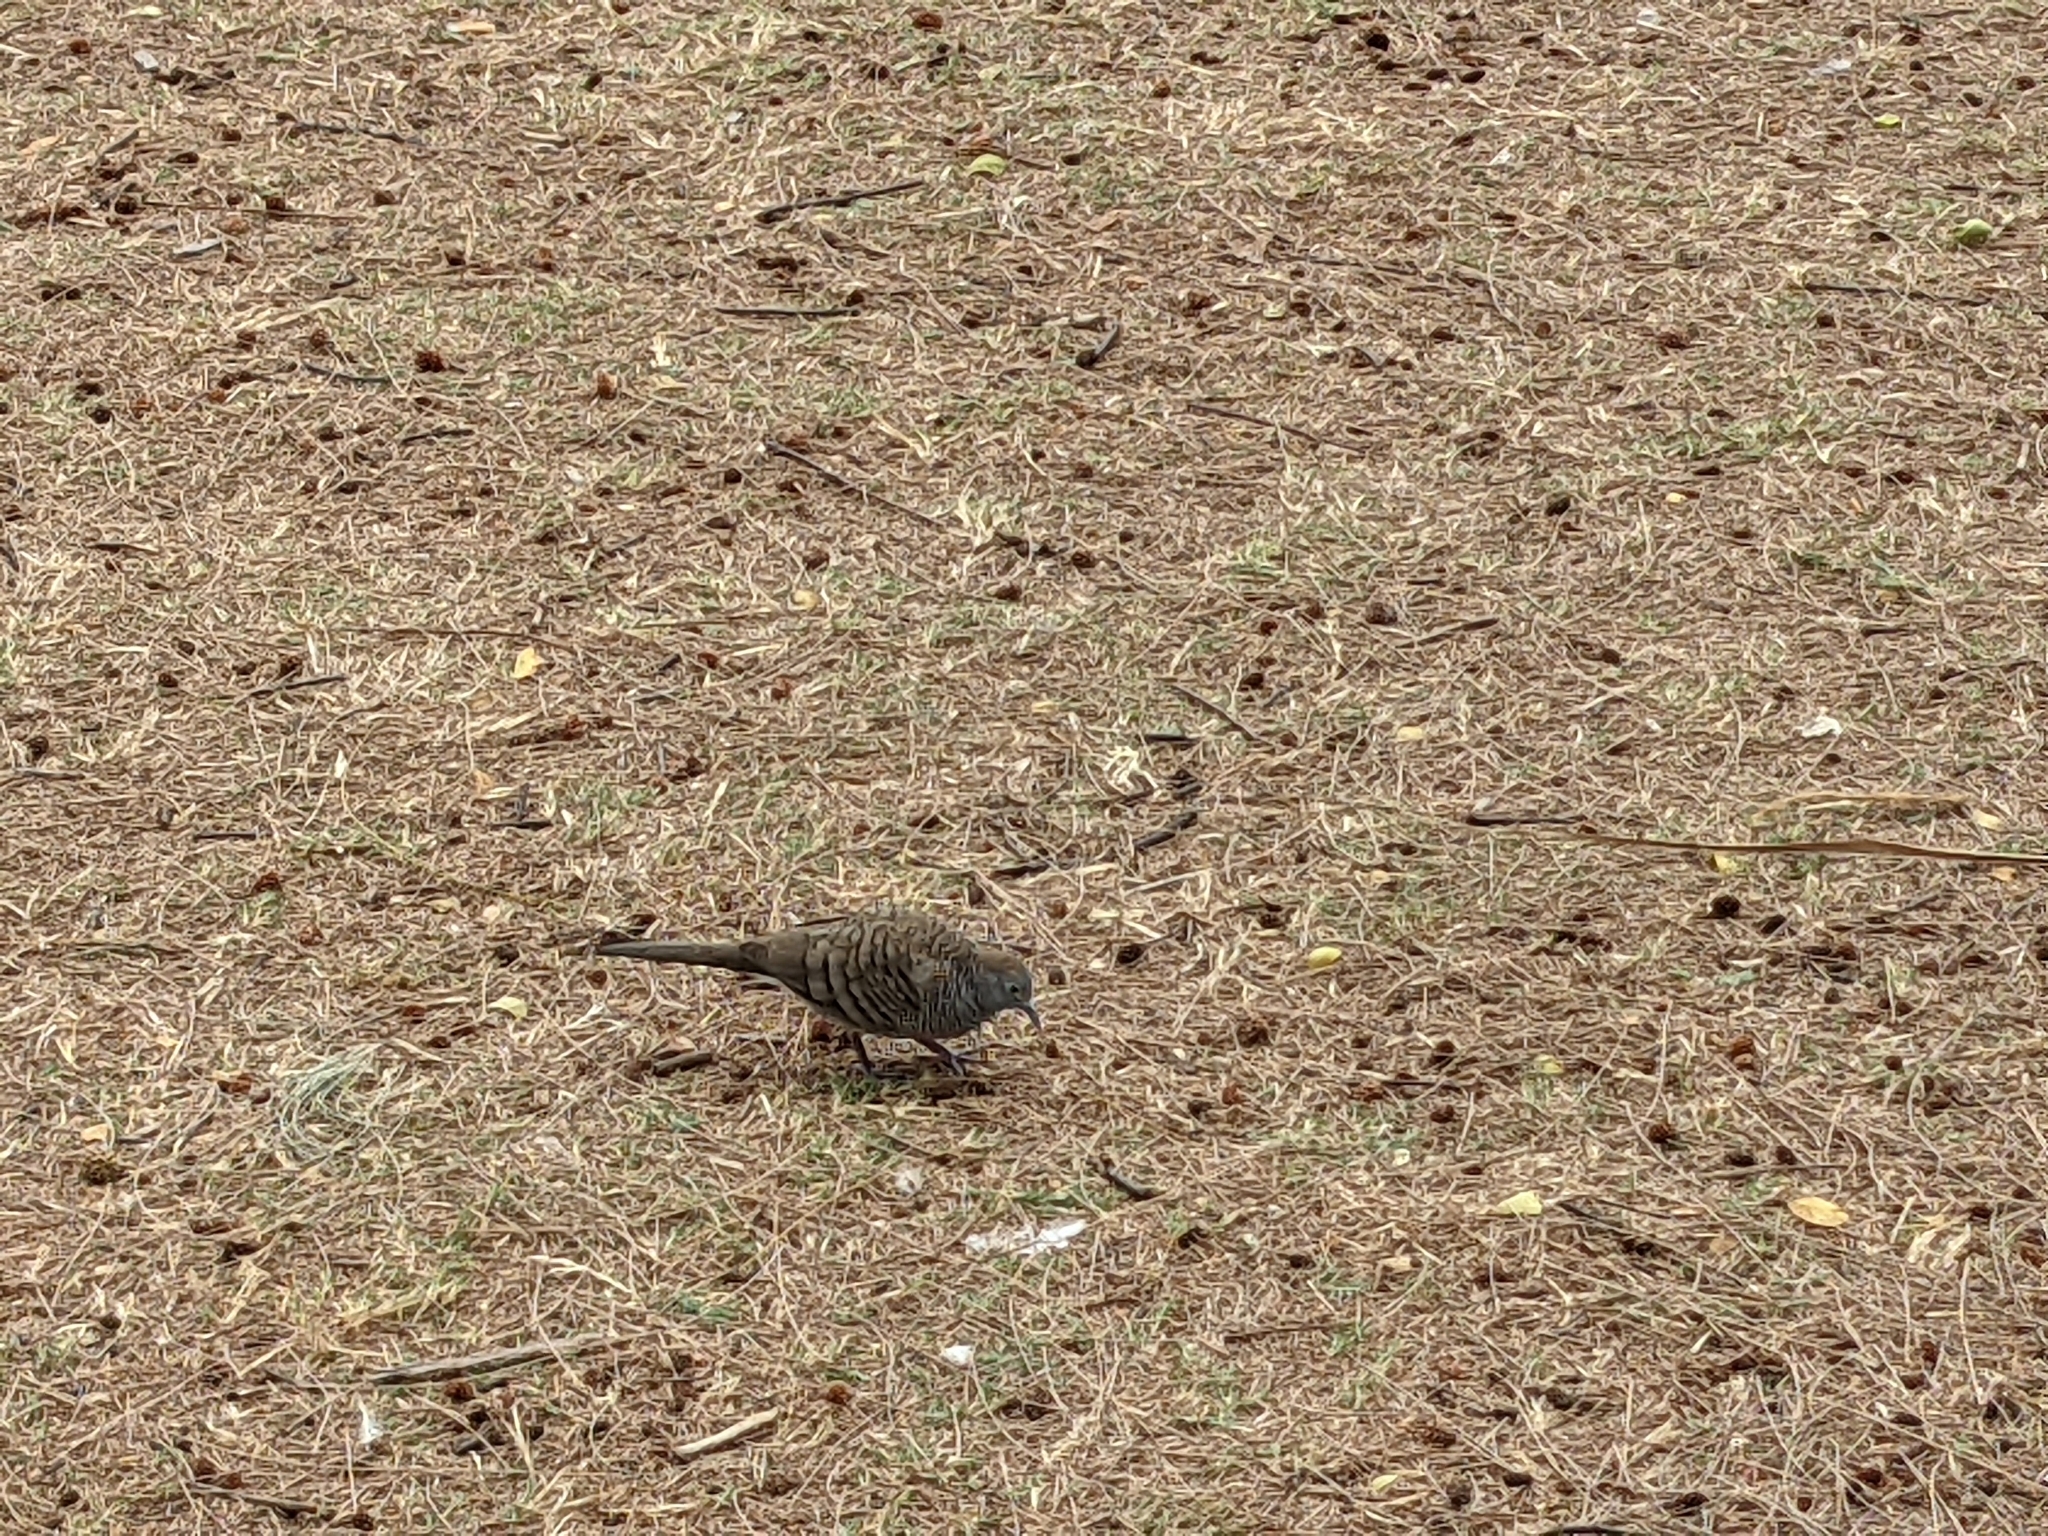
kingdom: Animalia
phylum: Chordata
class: Aves
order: Columbiformes
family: Columbidae
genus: Geopelia
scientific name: Geopelia striata
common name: Zebra dove
